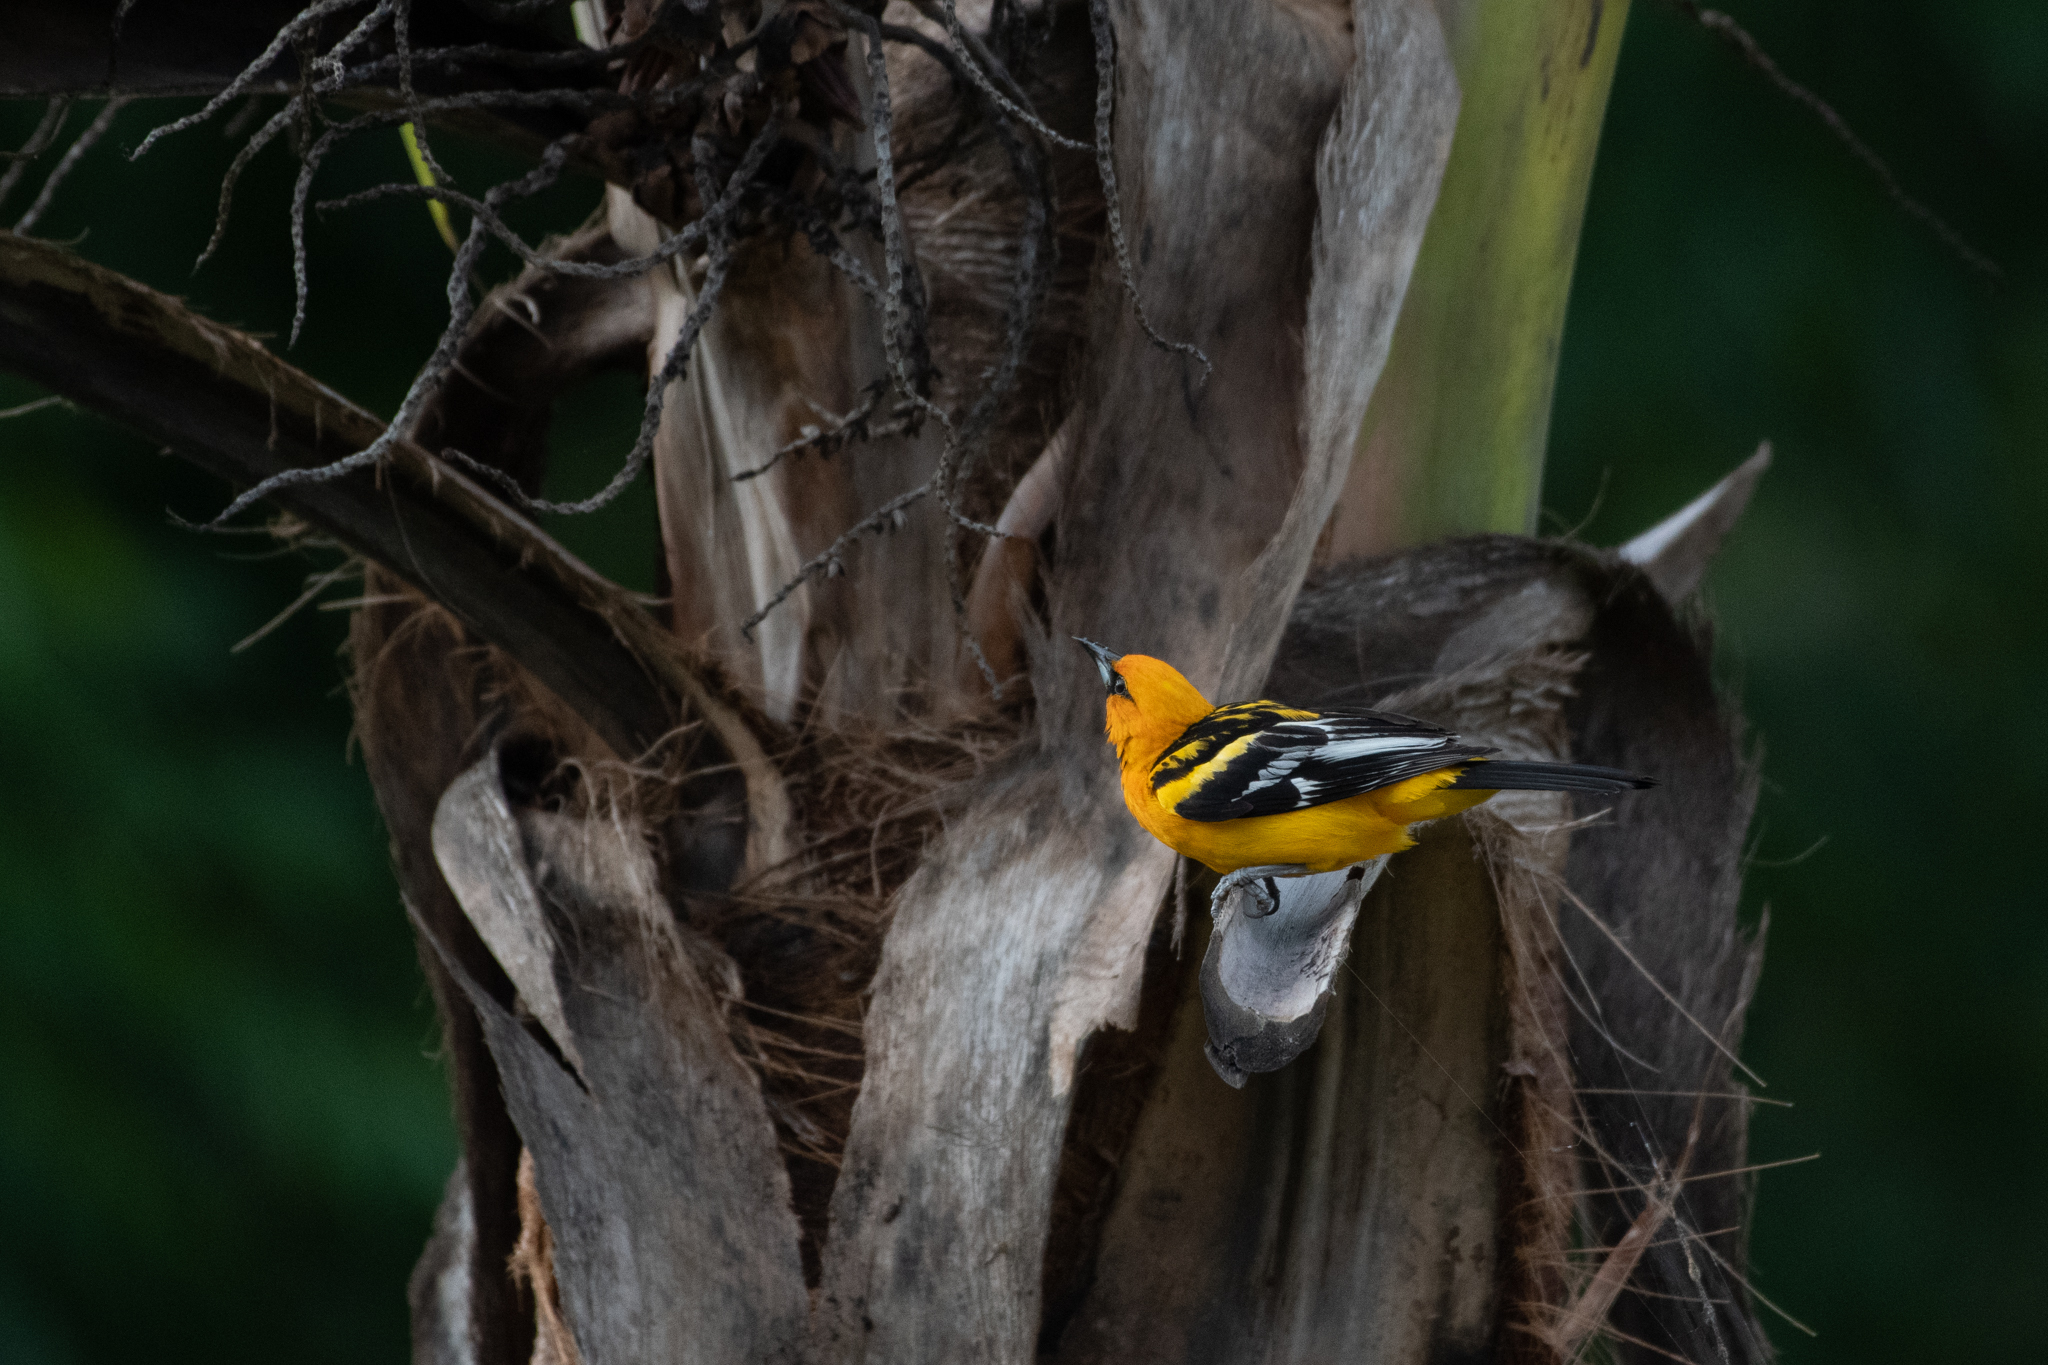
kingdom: Animalia
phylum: Chordata
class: Aves
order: Passeriformes
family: Icteridae
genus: Icterus
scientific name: Icterus pustulatus
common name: Streak-backed oriole
